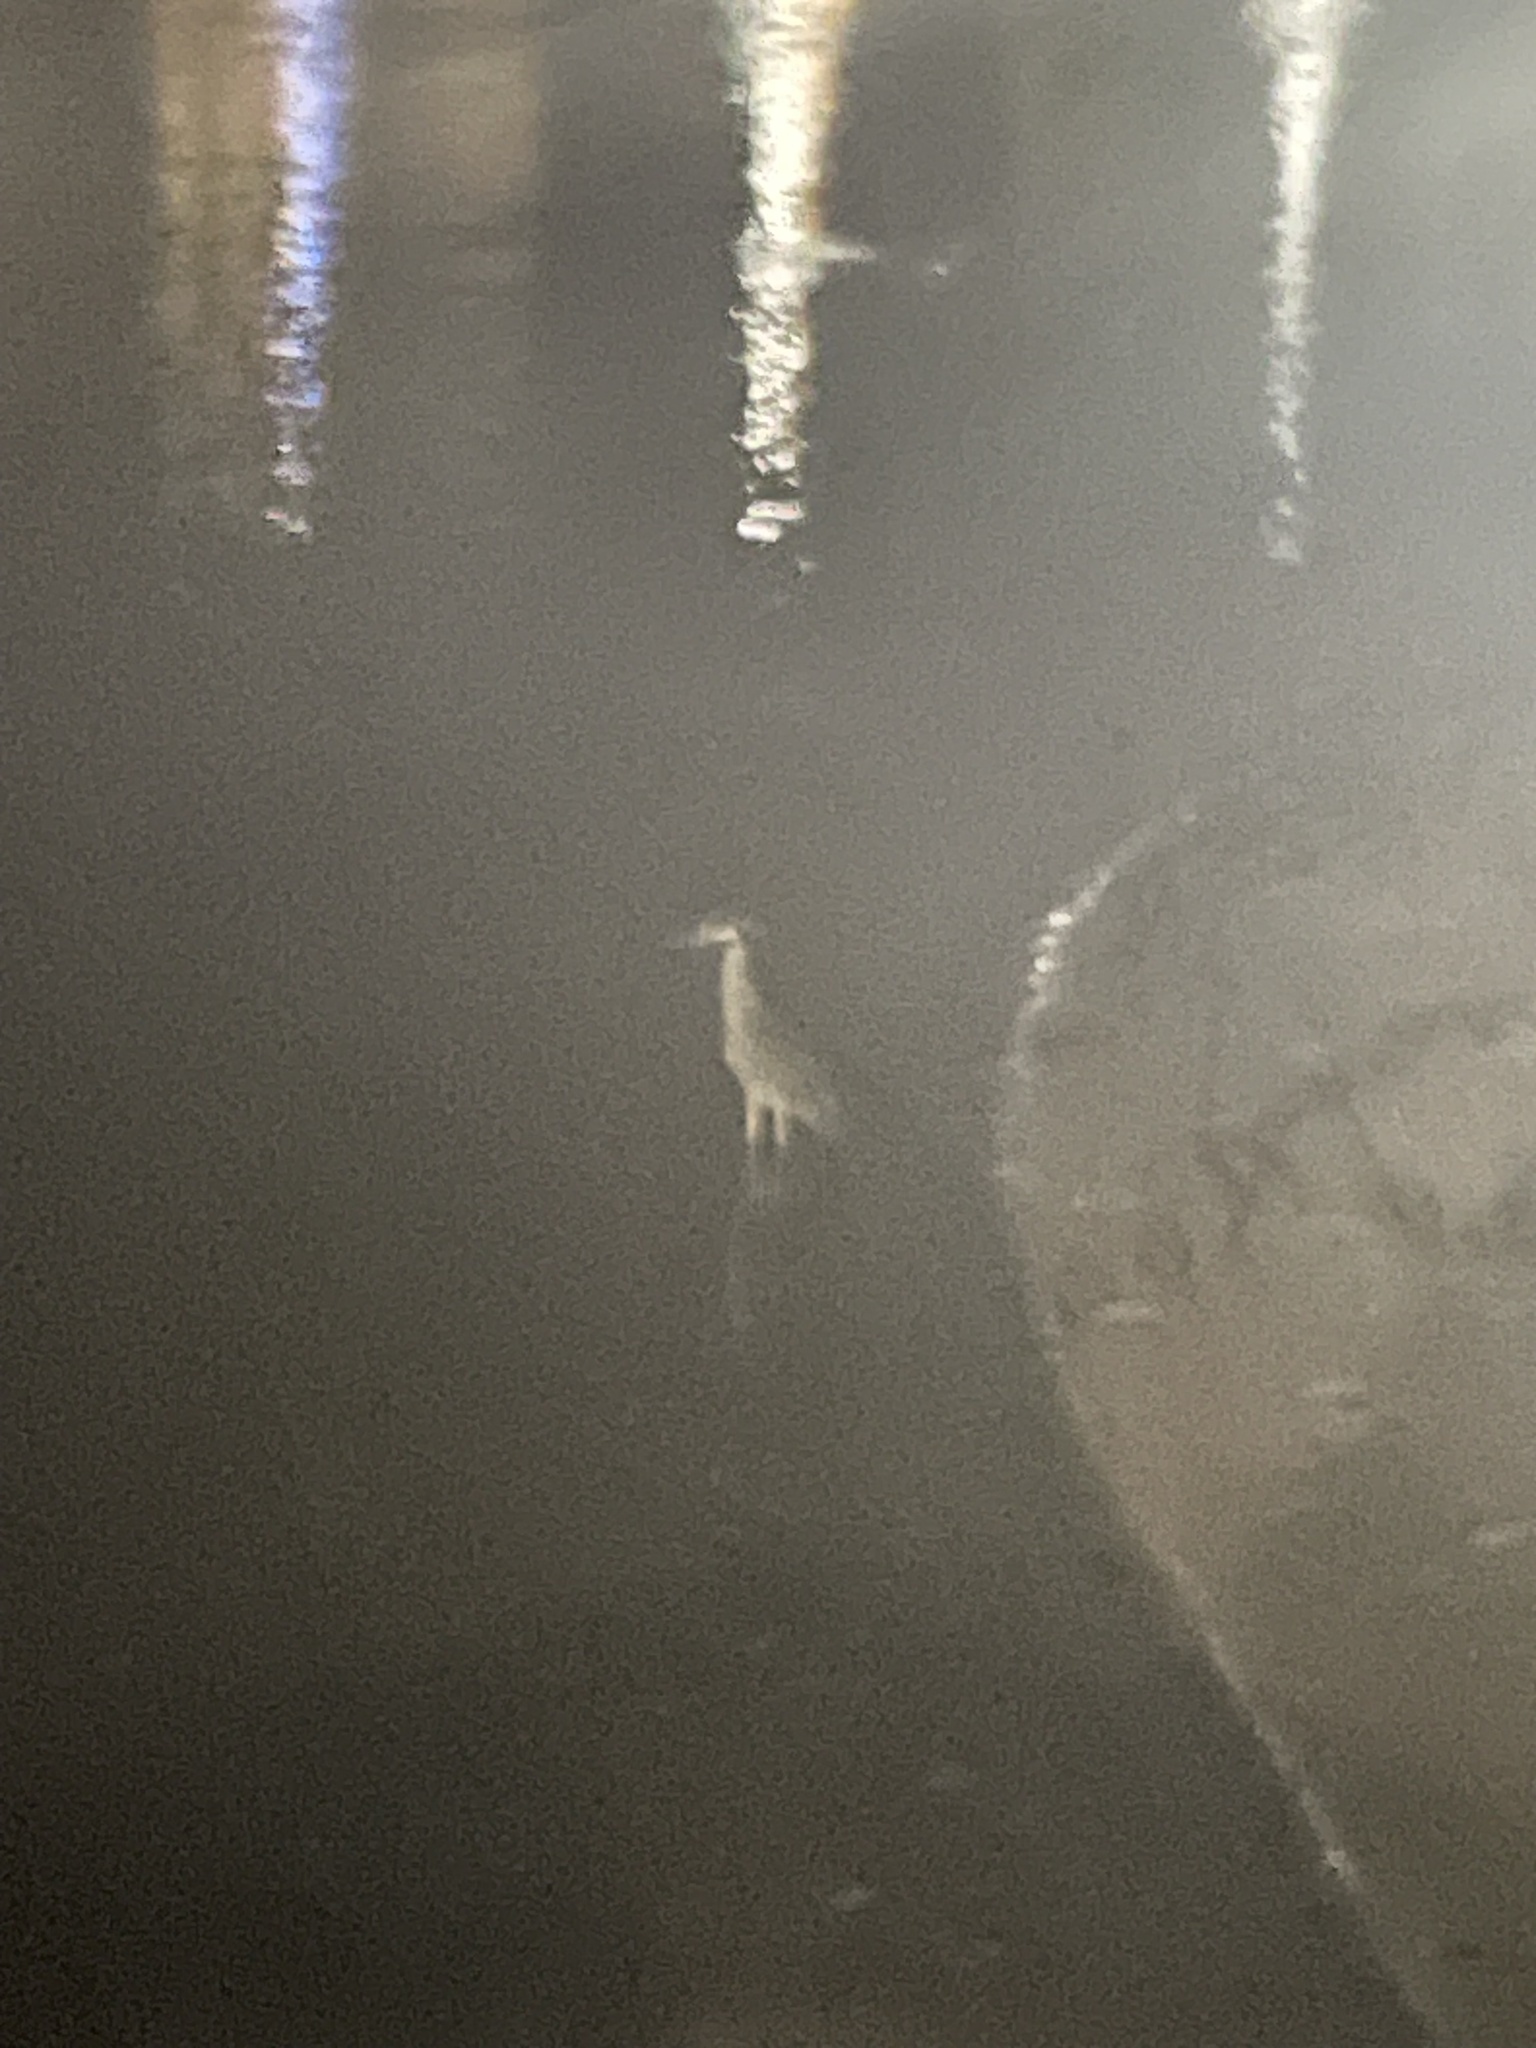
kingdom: Animalia
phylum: Chordata
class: Aves
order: Pelecaniformes
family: Ardeidae
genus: Nyctanassa
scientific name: Nyctanassa violacea
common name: Yellow-crowned night heron
